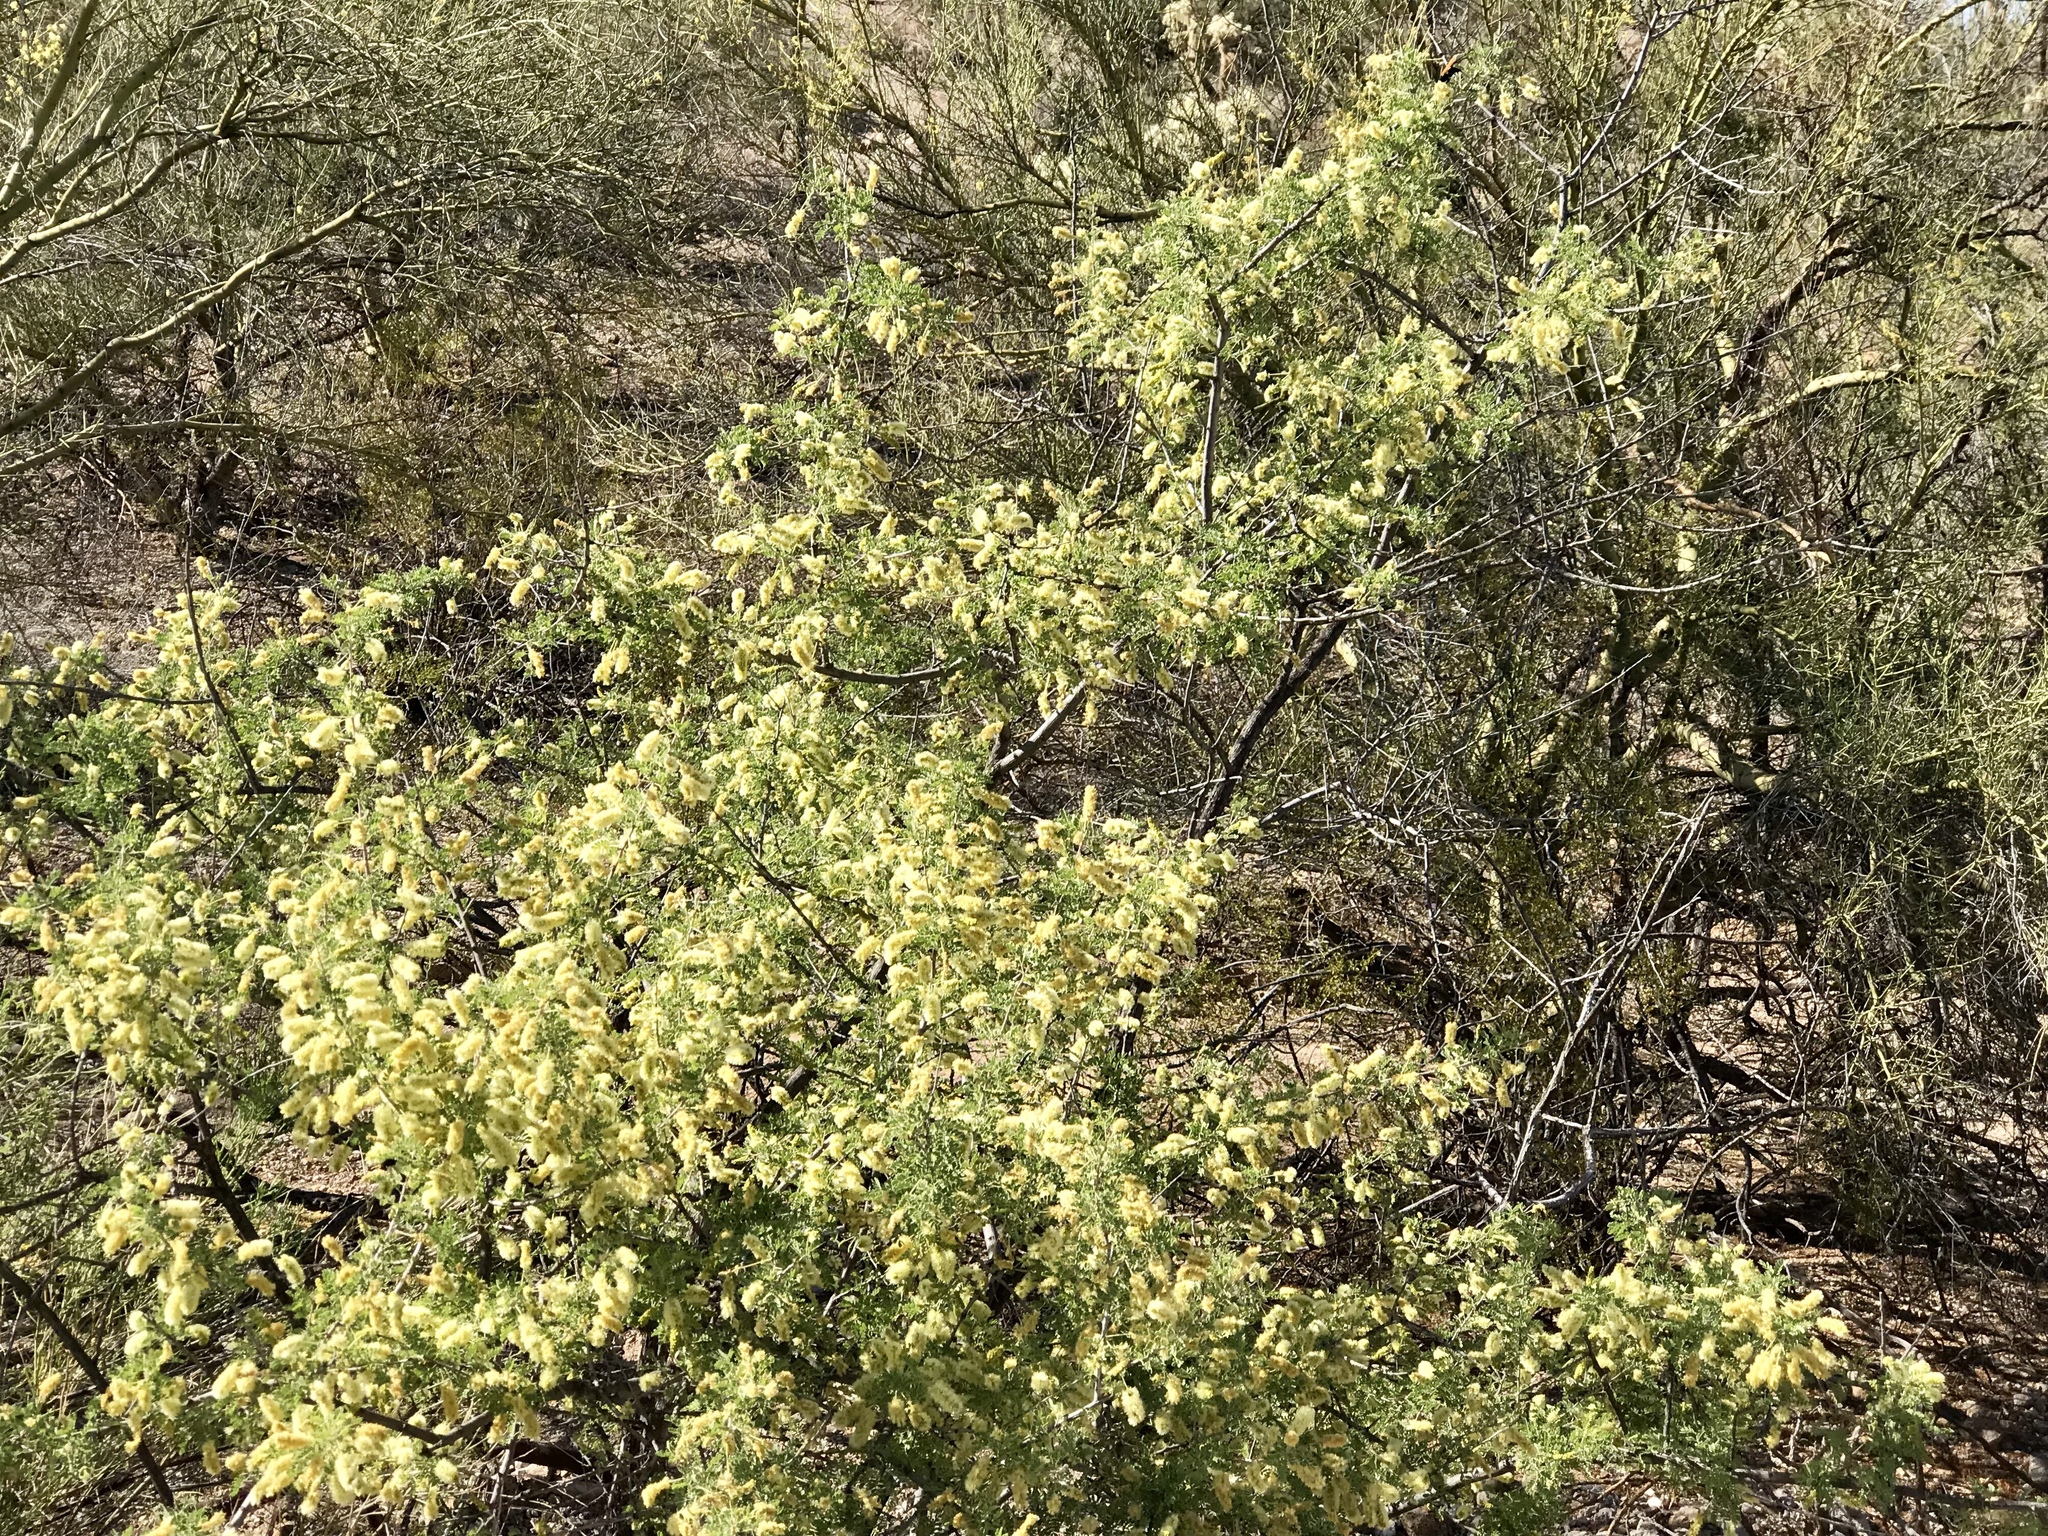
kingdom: Plantae
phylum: Tracheophyta
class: Magnoliopsida
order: Fabales
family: Fabaceae
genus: Senegalia
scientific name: Senegalia greggii
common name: Texas-mimosa
